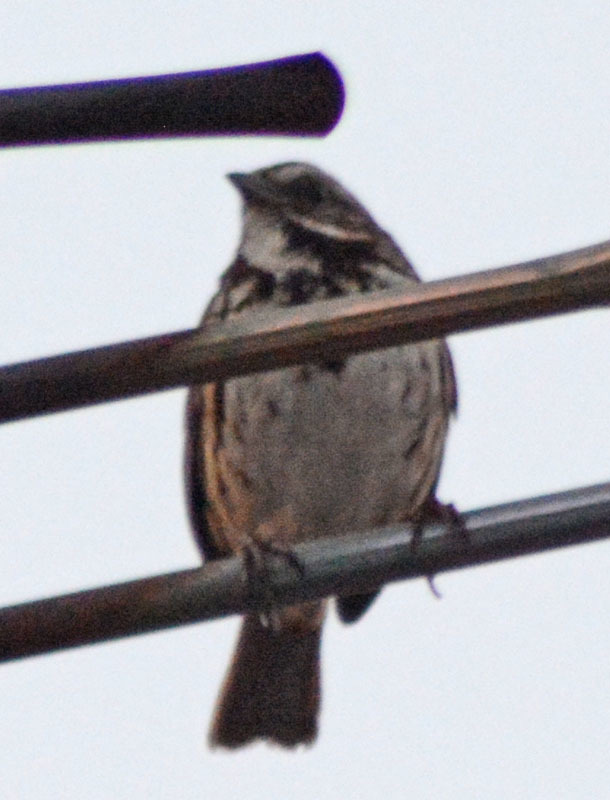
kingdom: Animalia
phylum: Chordata
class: Aves
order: Passeriformes
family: Passerellidae
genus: Melospiza
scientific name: Melospiza melodia
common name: Song sparrow
